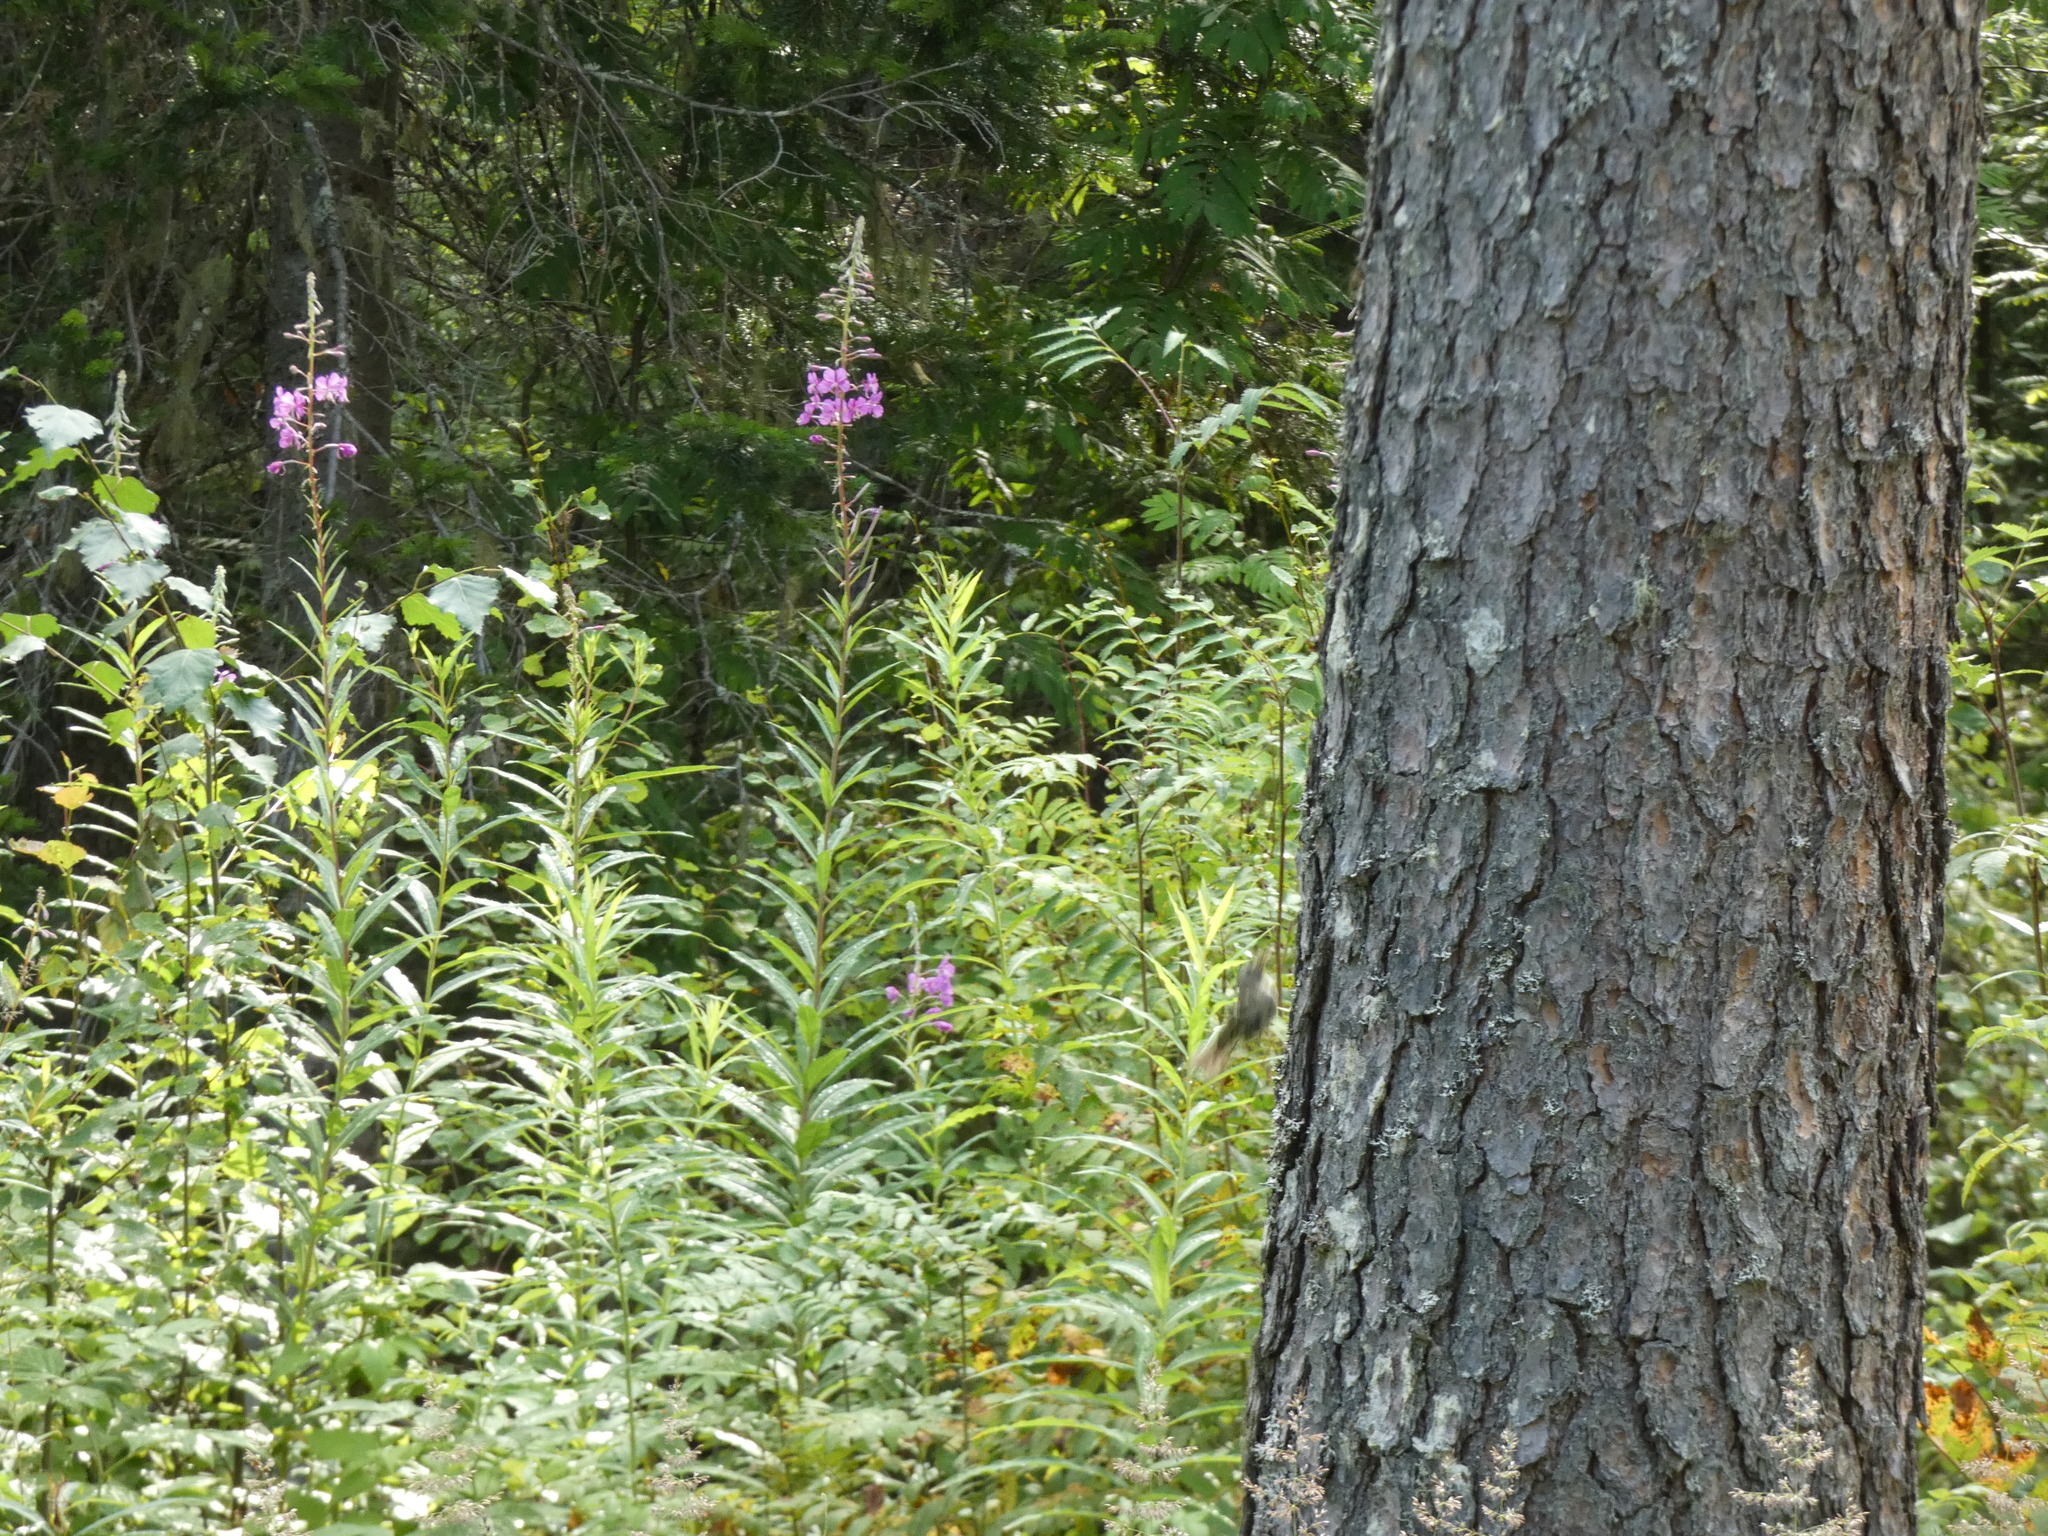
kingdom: Plantae
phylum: Tracheophyta
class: Magnoliopsida
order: Myrtales
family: Onagraceae
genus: Chamaenerion
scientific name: Chamaenerion angustifolium
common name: Fireweed
